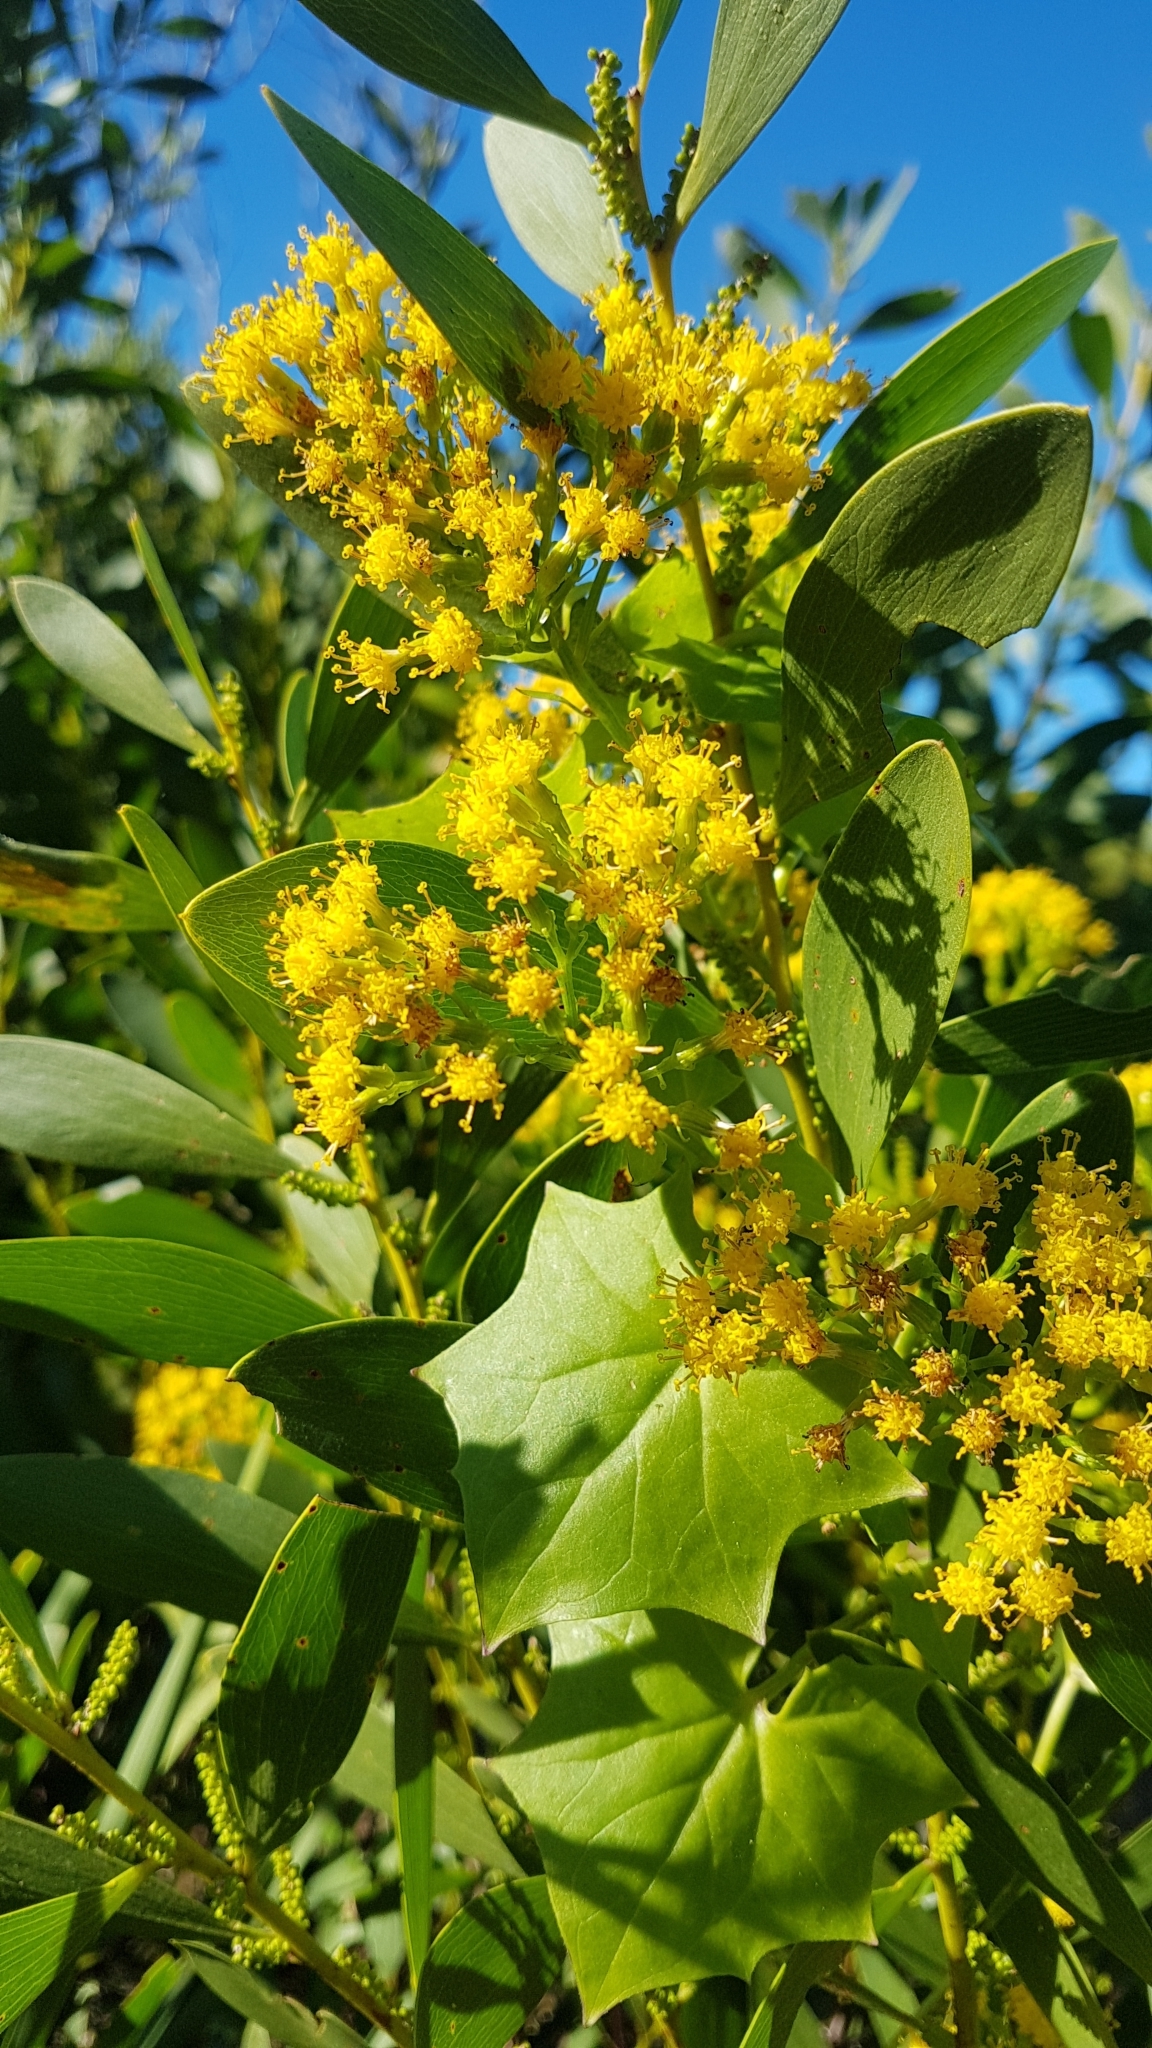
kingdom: Plantae
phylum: Tracheophyta
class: Magnoliopsida
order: Asterales
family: Asteraceae
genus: Delairea
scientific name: Delairea odorata
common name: Cape-ivy
